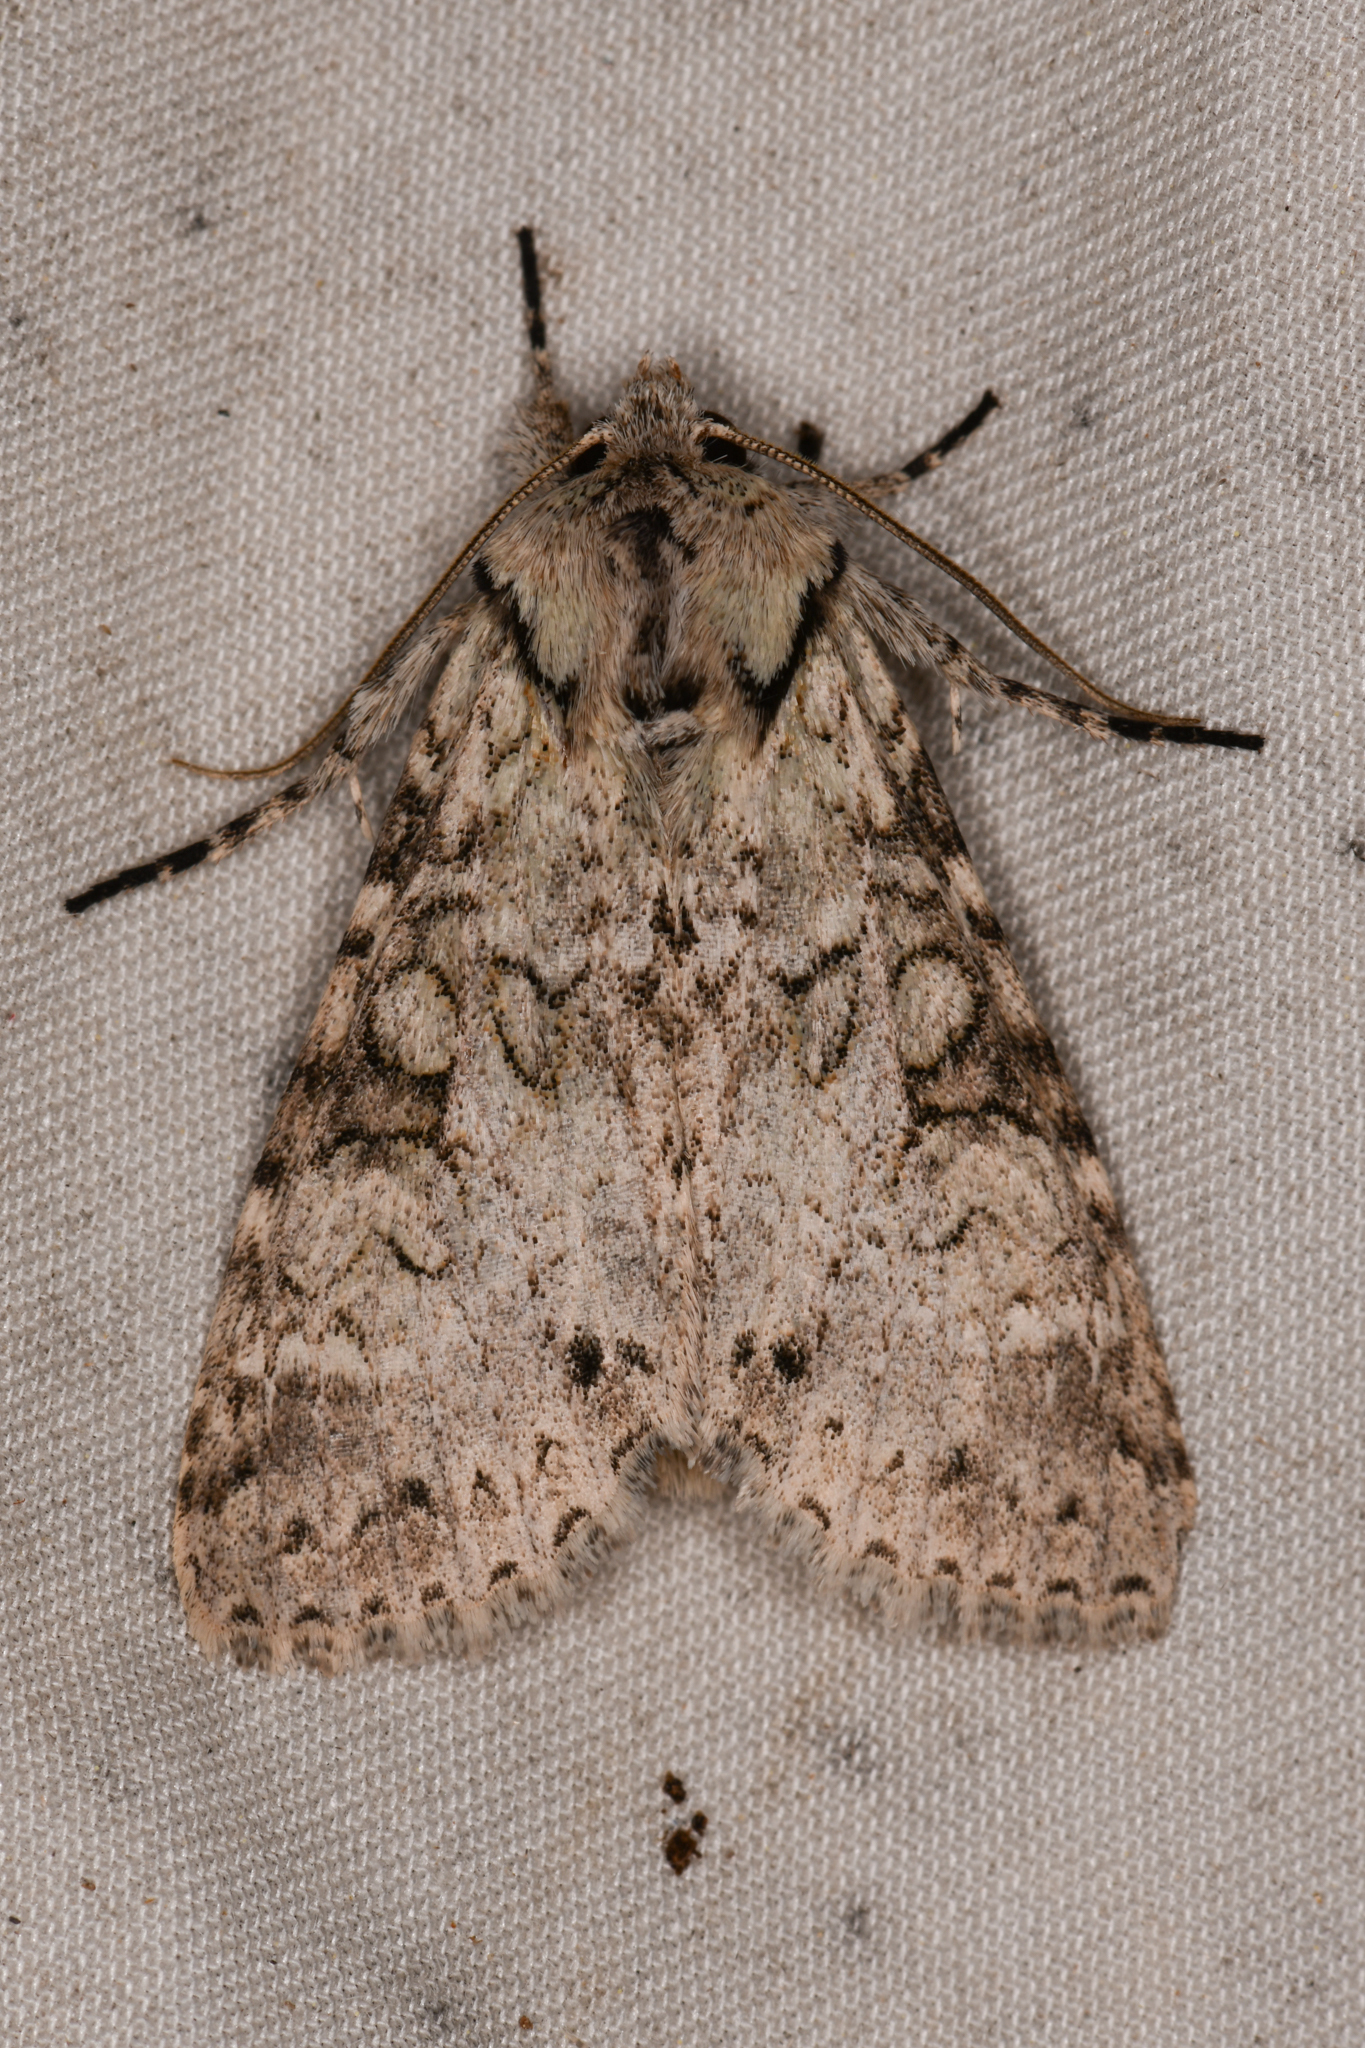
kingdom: Animalia
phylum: Arthropoda
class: Insecta
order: Lepidoptera
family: Noctuidae
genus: Polia
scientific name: Polia nimbosa
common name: Stormy arches
